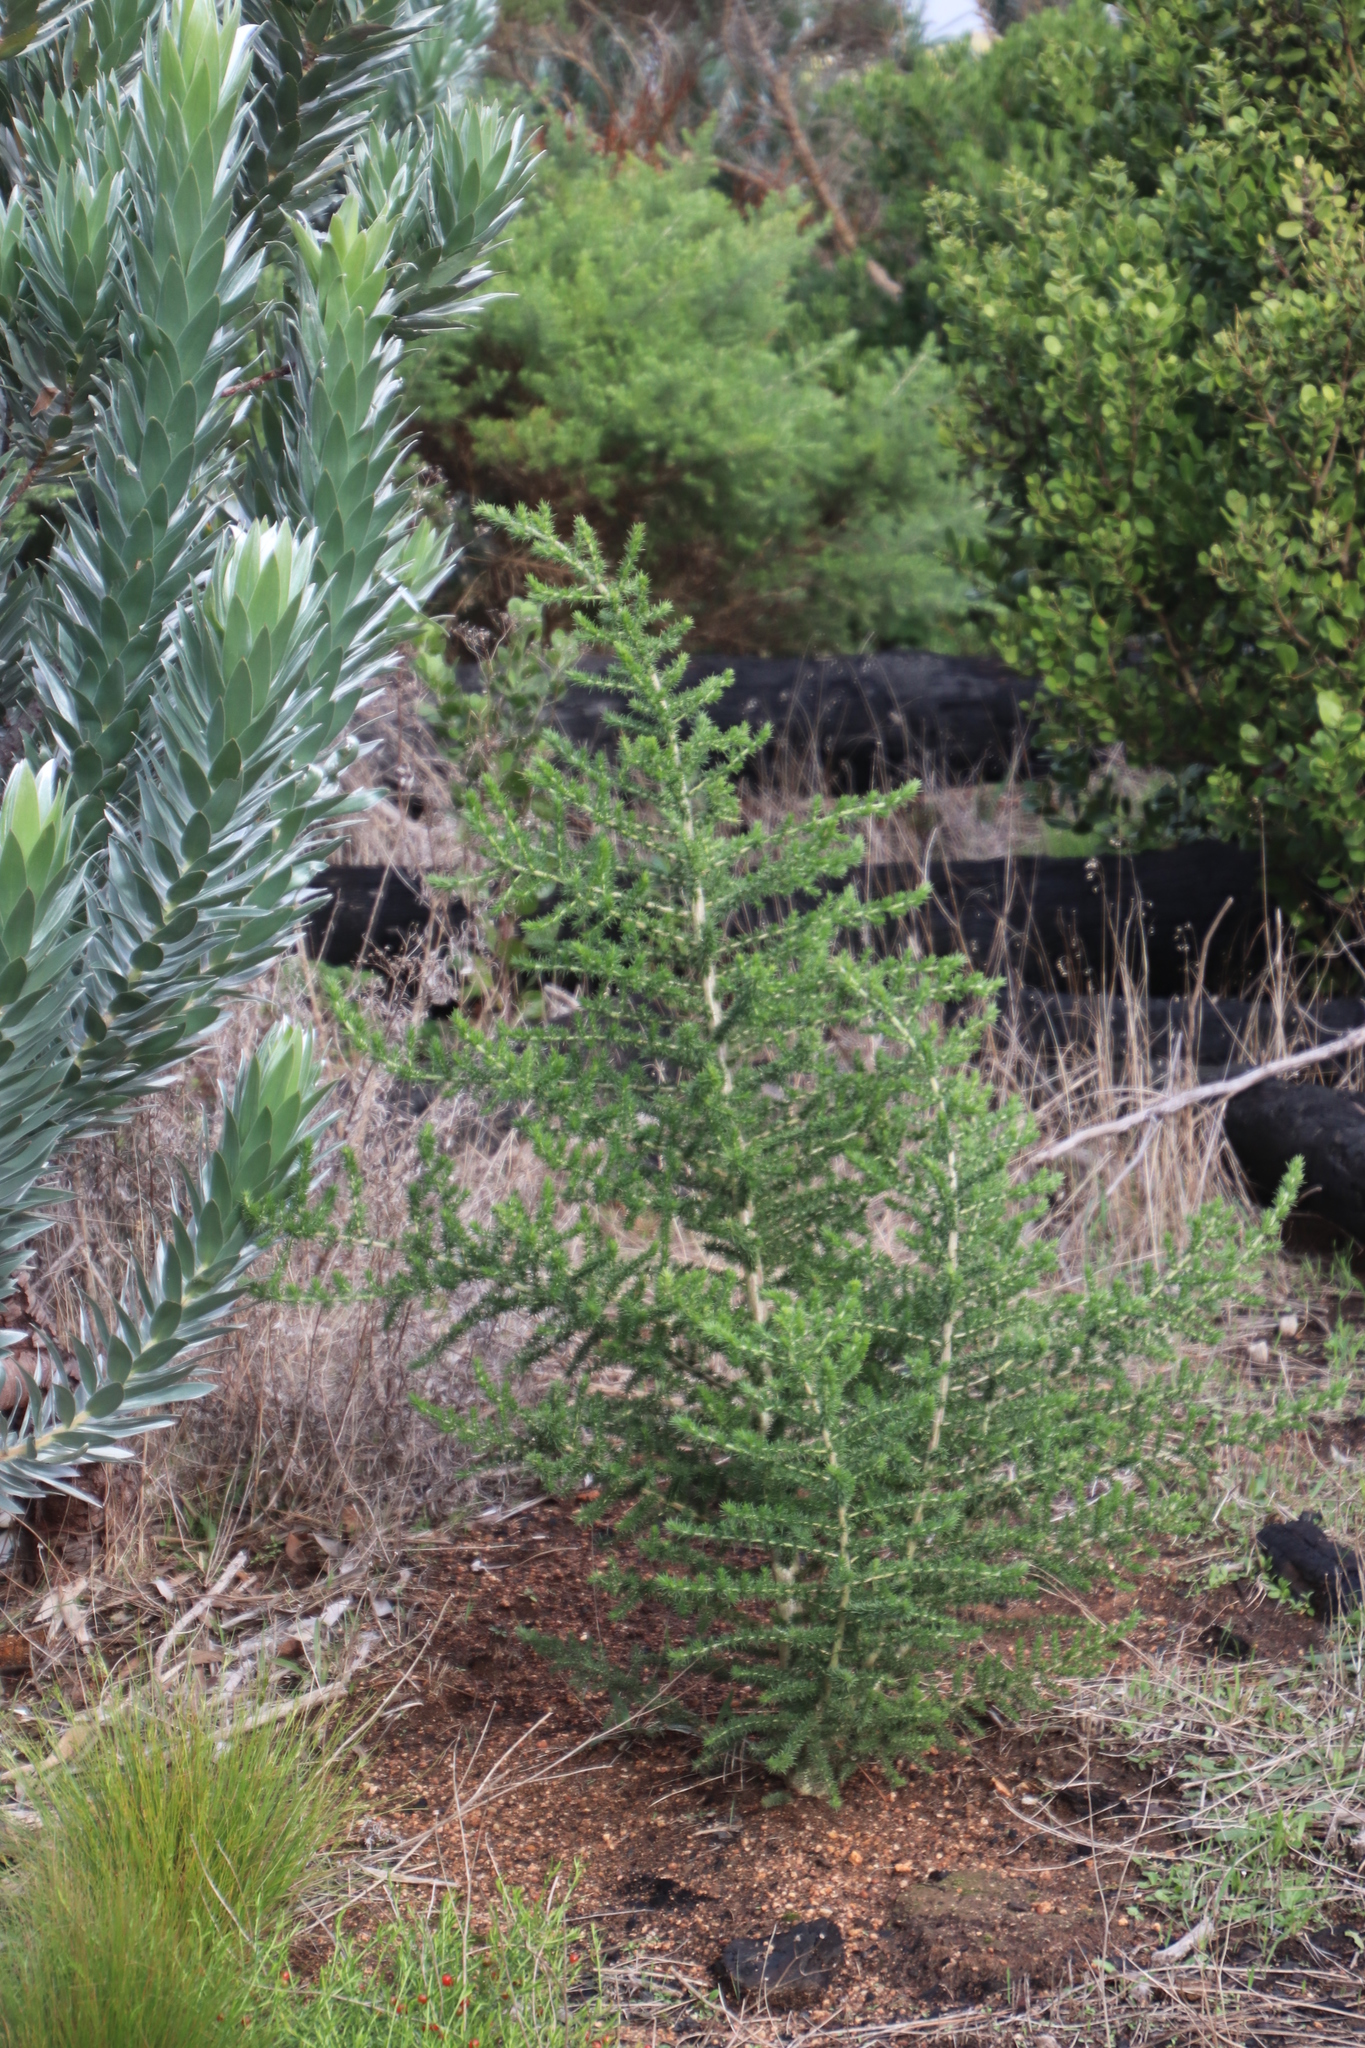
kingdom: Plantae
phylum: Tracheophyta
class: Magnoliopsida
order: Fabales
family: Fabaceae
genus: Aspalathus
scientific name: Aspalathus chenopoda
